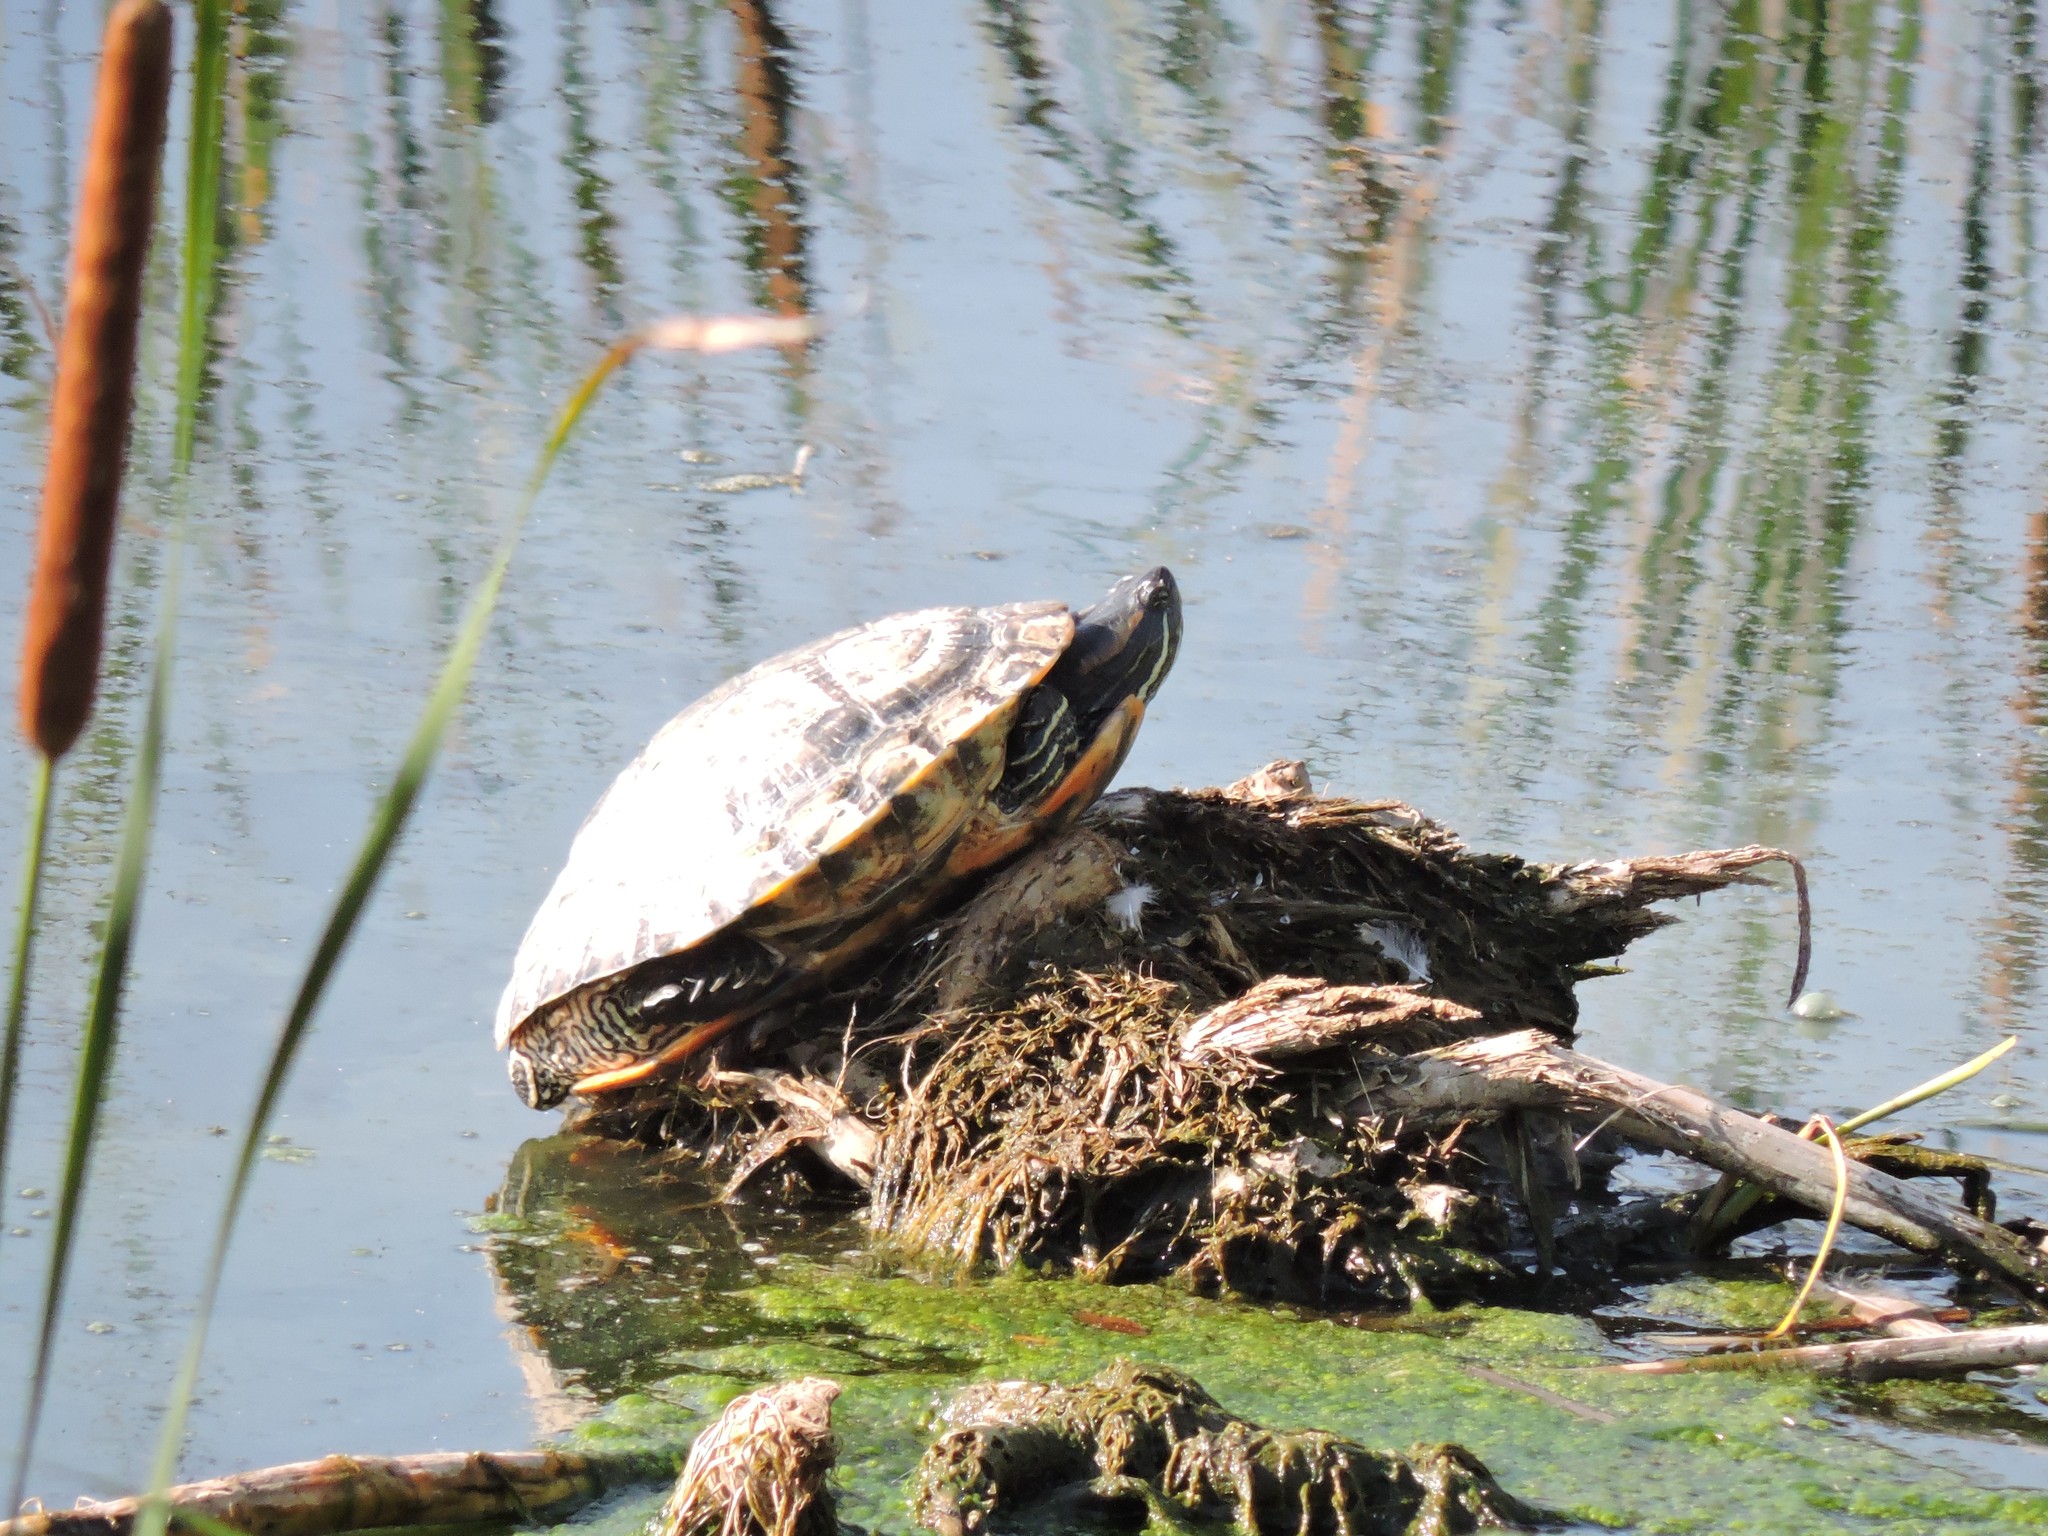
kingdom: Animalia
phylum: Chordata
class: Testudines
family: Emydidae
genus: Trachemys
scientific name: Trachemys scripta
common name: Slider
